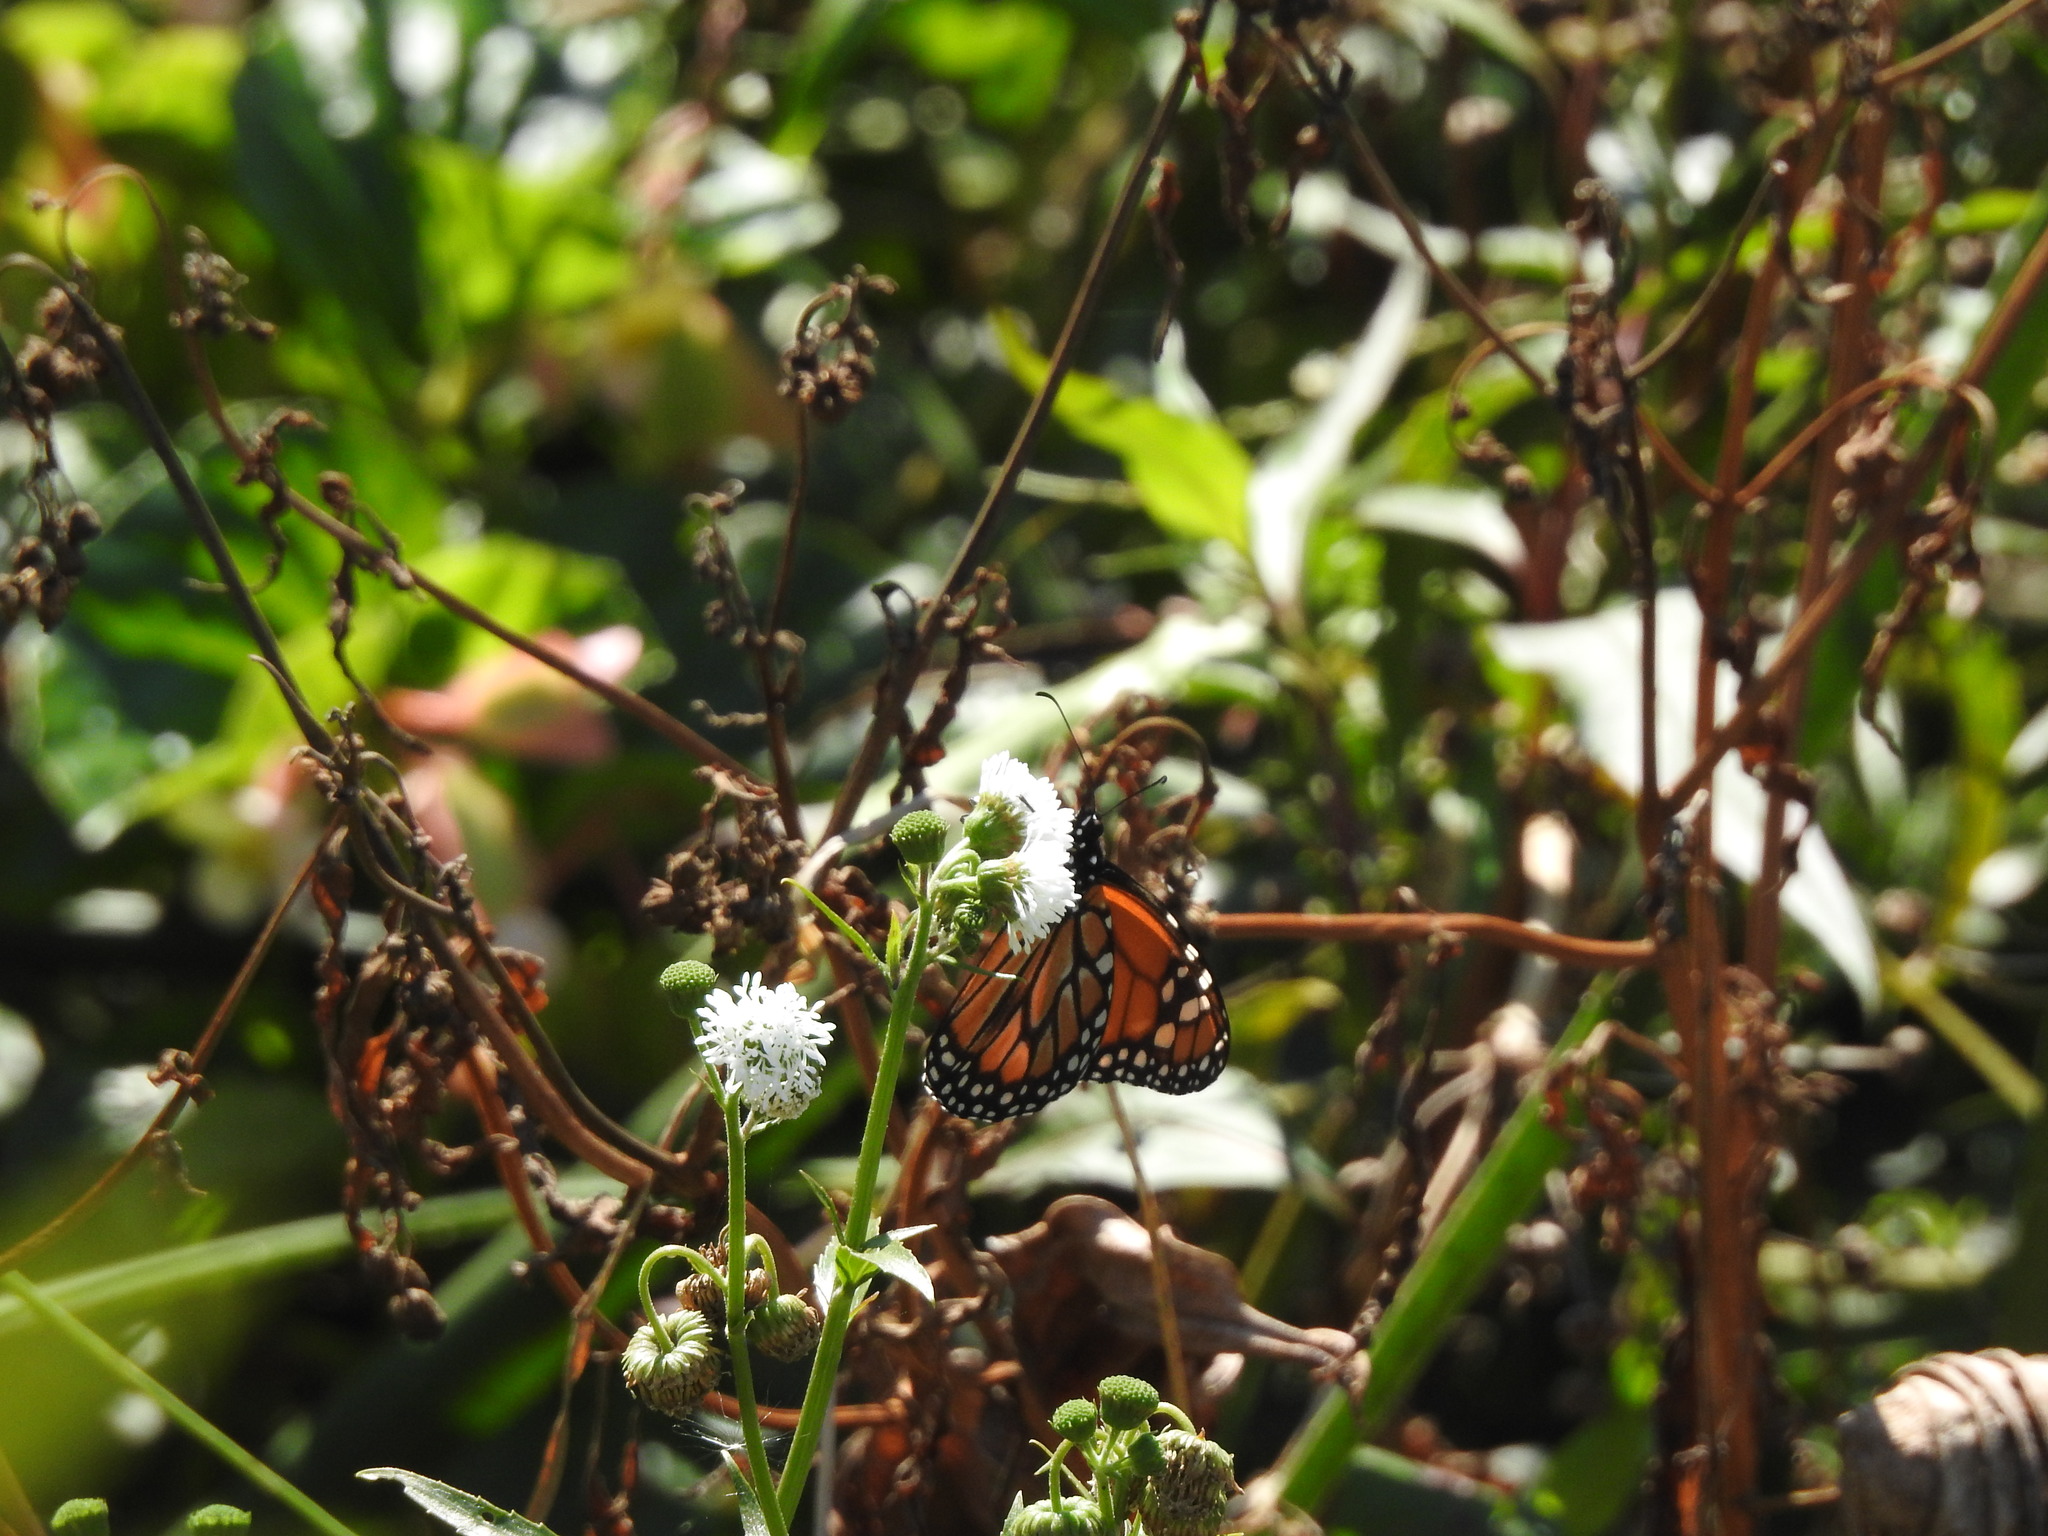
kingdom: Animalia
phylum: Arthropoda
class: Insecta
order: Lepidoptera
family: Nymphalidae
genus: Danaus
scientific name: Danaus erippus
